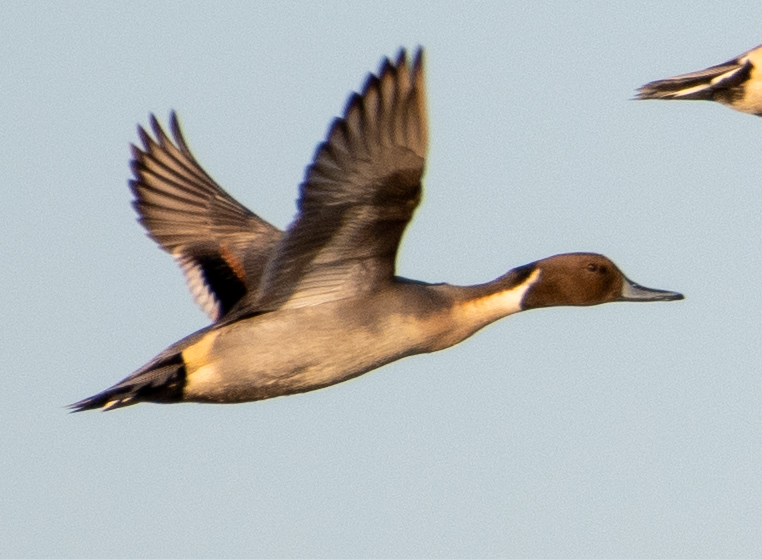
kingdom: Animalia
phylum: Chordata
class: Aves
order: Anseriformes
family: Anatidae
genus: Anas
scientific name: Anas acuta
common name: Northern pintail
